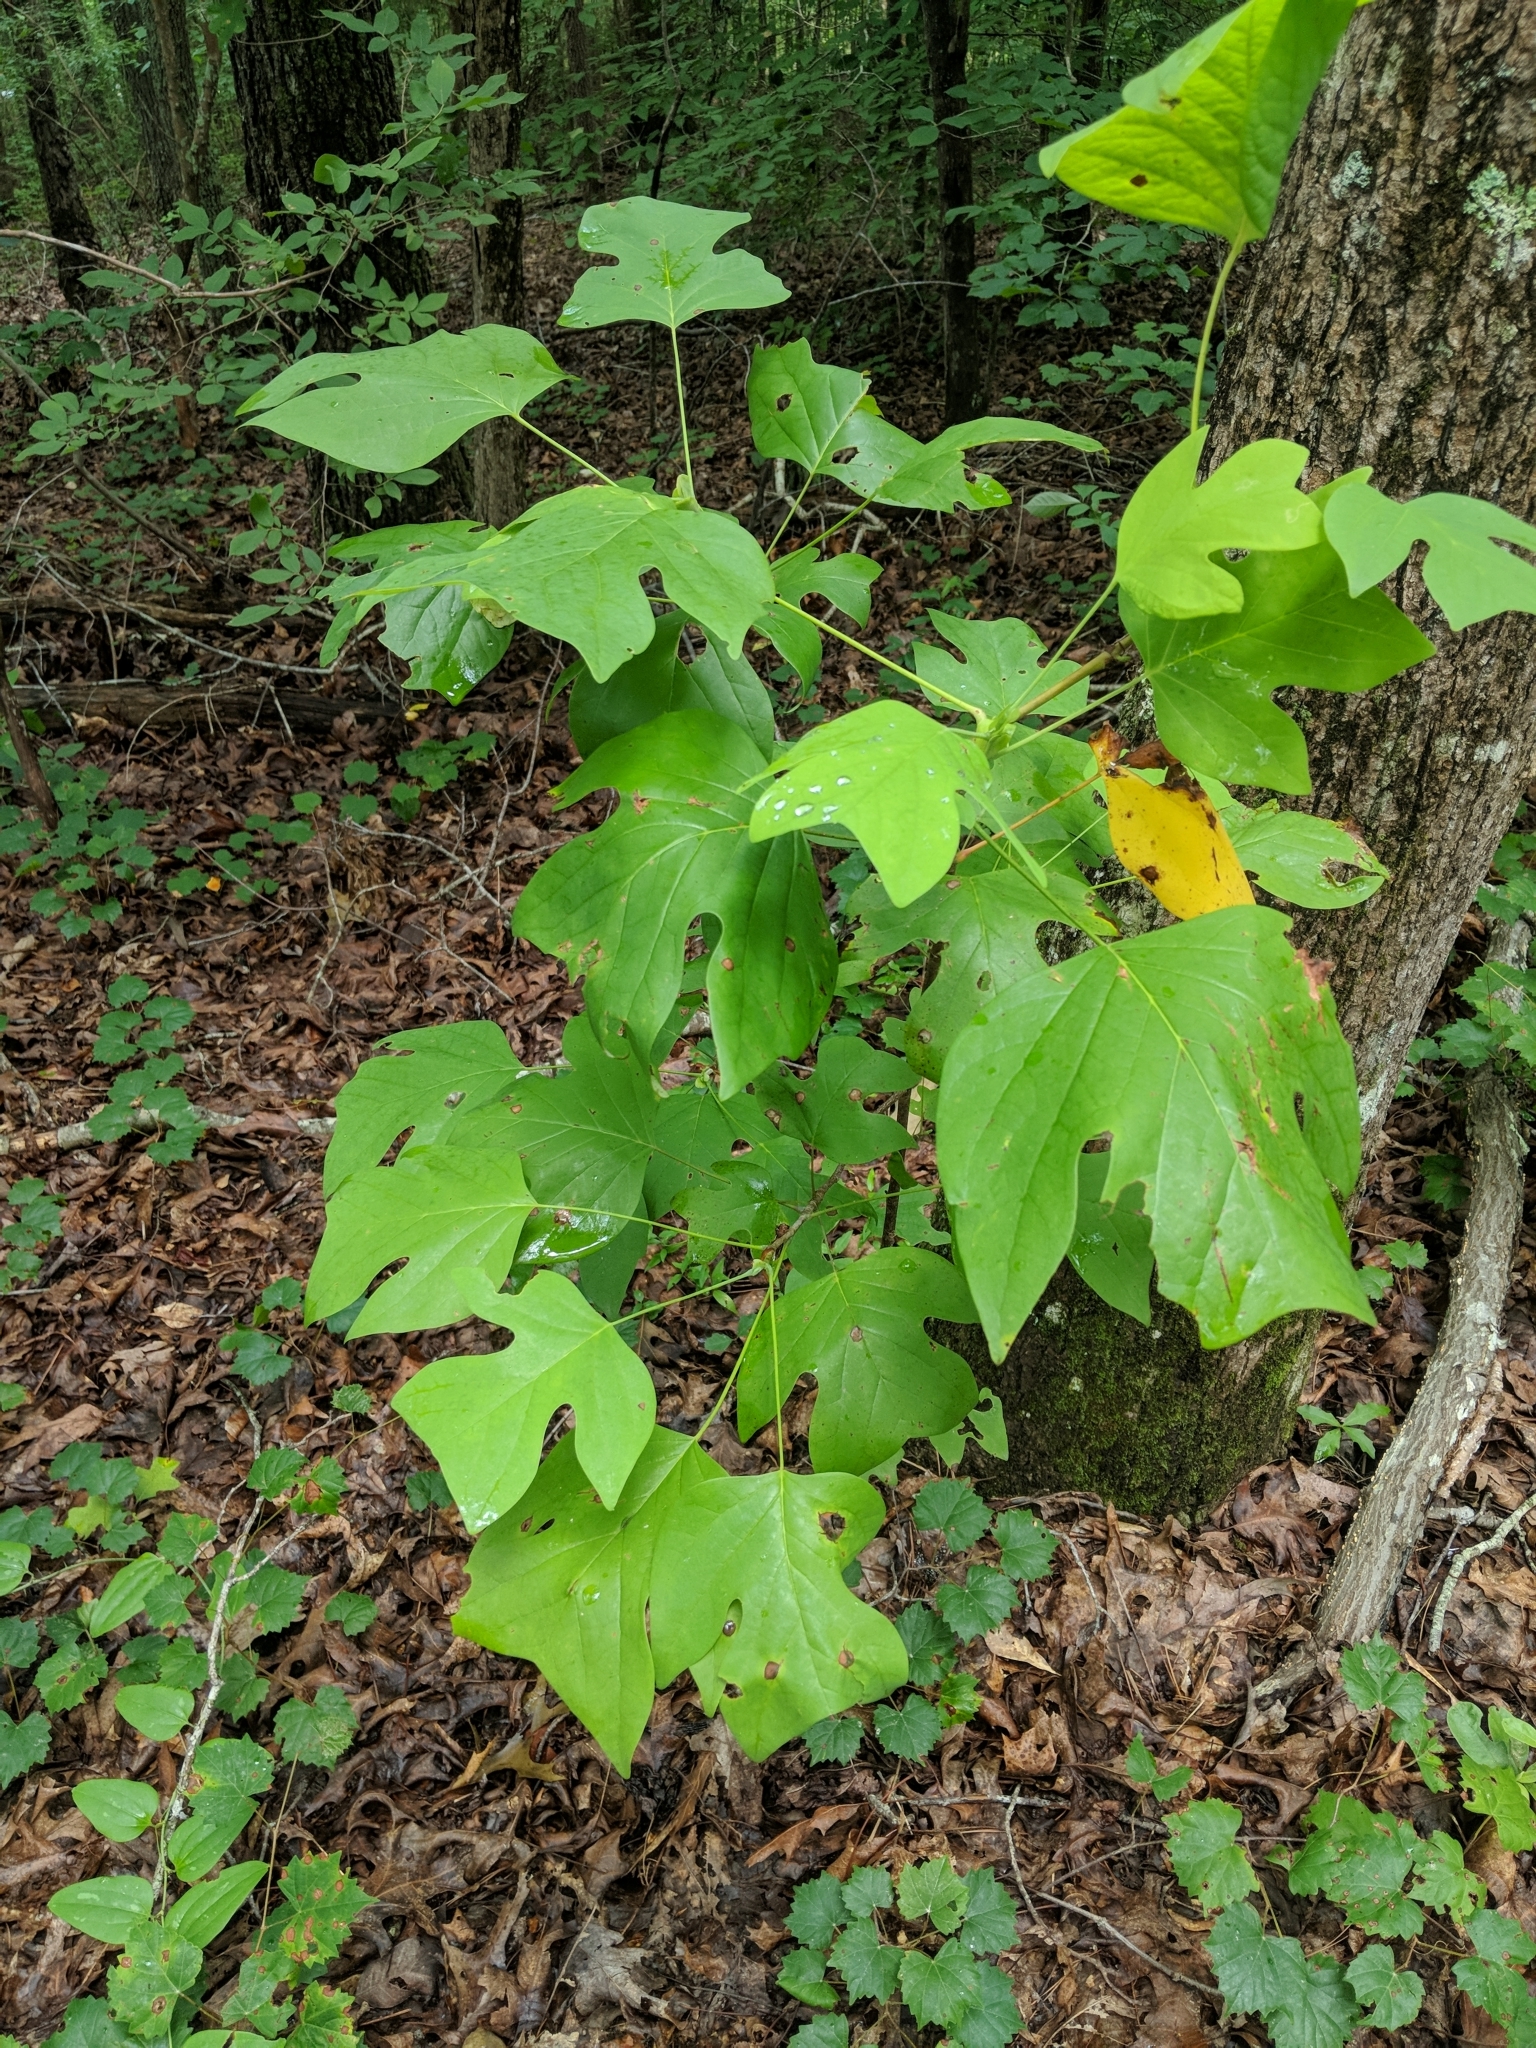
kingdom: Plantae
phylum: Tracheophyta
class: Magnoliopsida
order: Magnoliales
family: Magnoliaceae
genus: Liriodendron
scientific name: Liriodendron tulipifera
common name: Tulip tree
